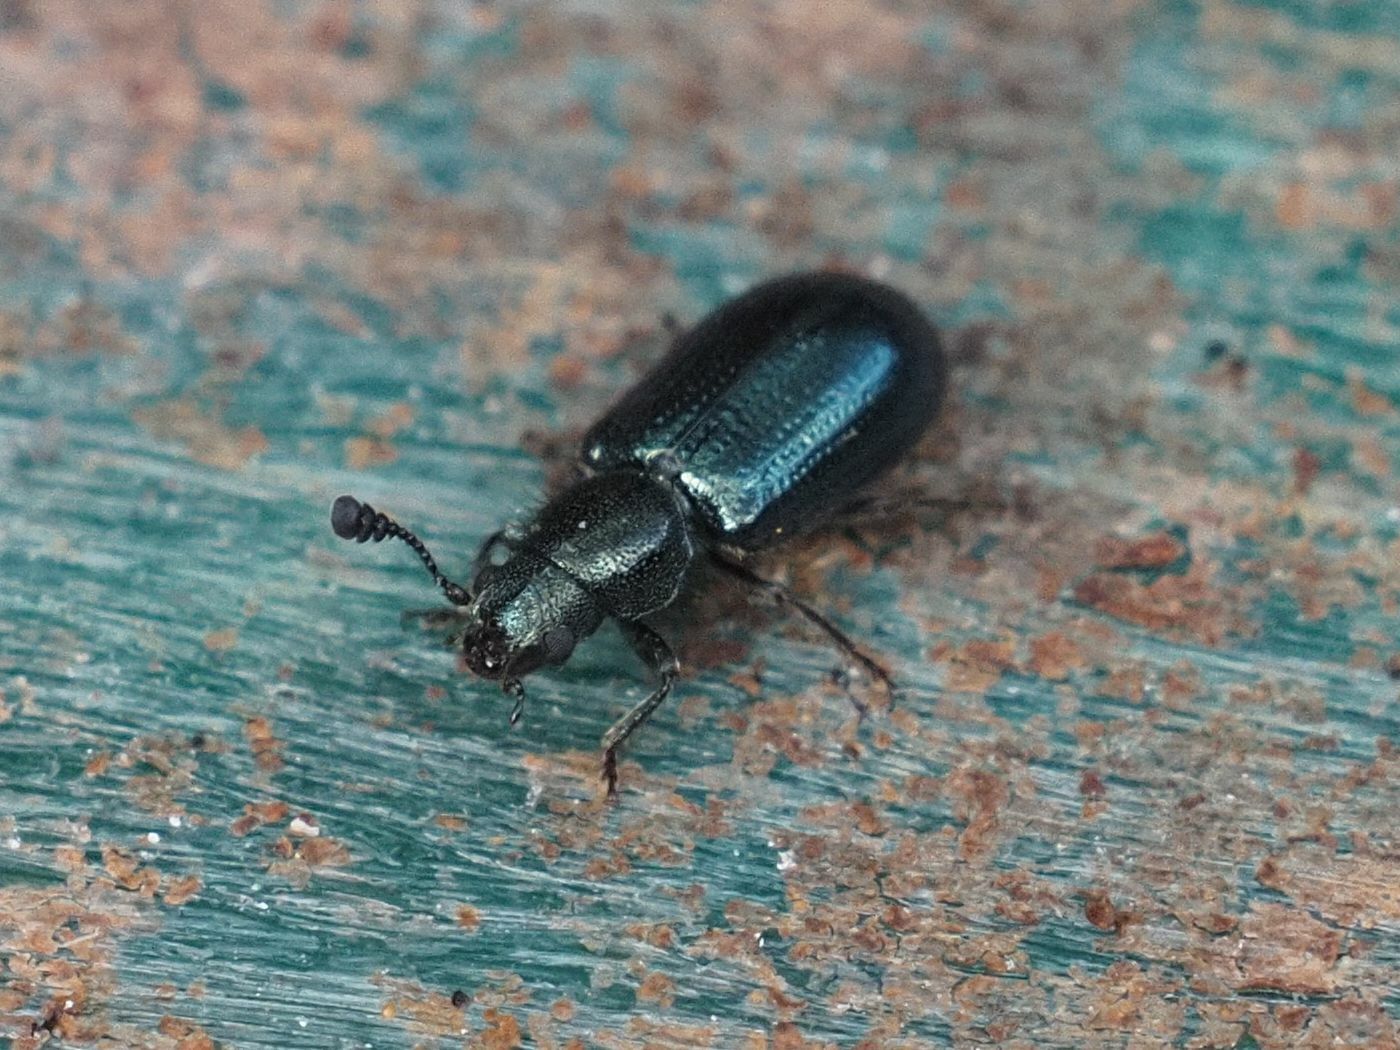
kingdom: Animalia
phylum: Arthropoda
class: Insecta
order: Coleoptera
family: Cleridae
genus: Necrobia
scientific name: Necrobia violacea
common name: Violet checkered beetle
